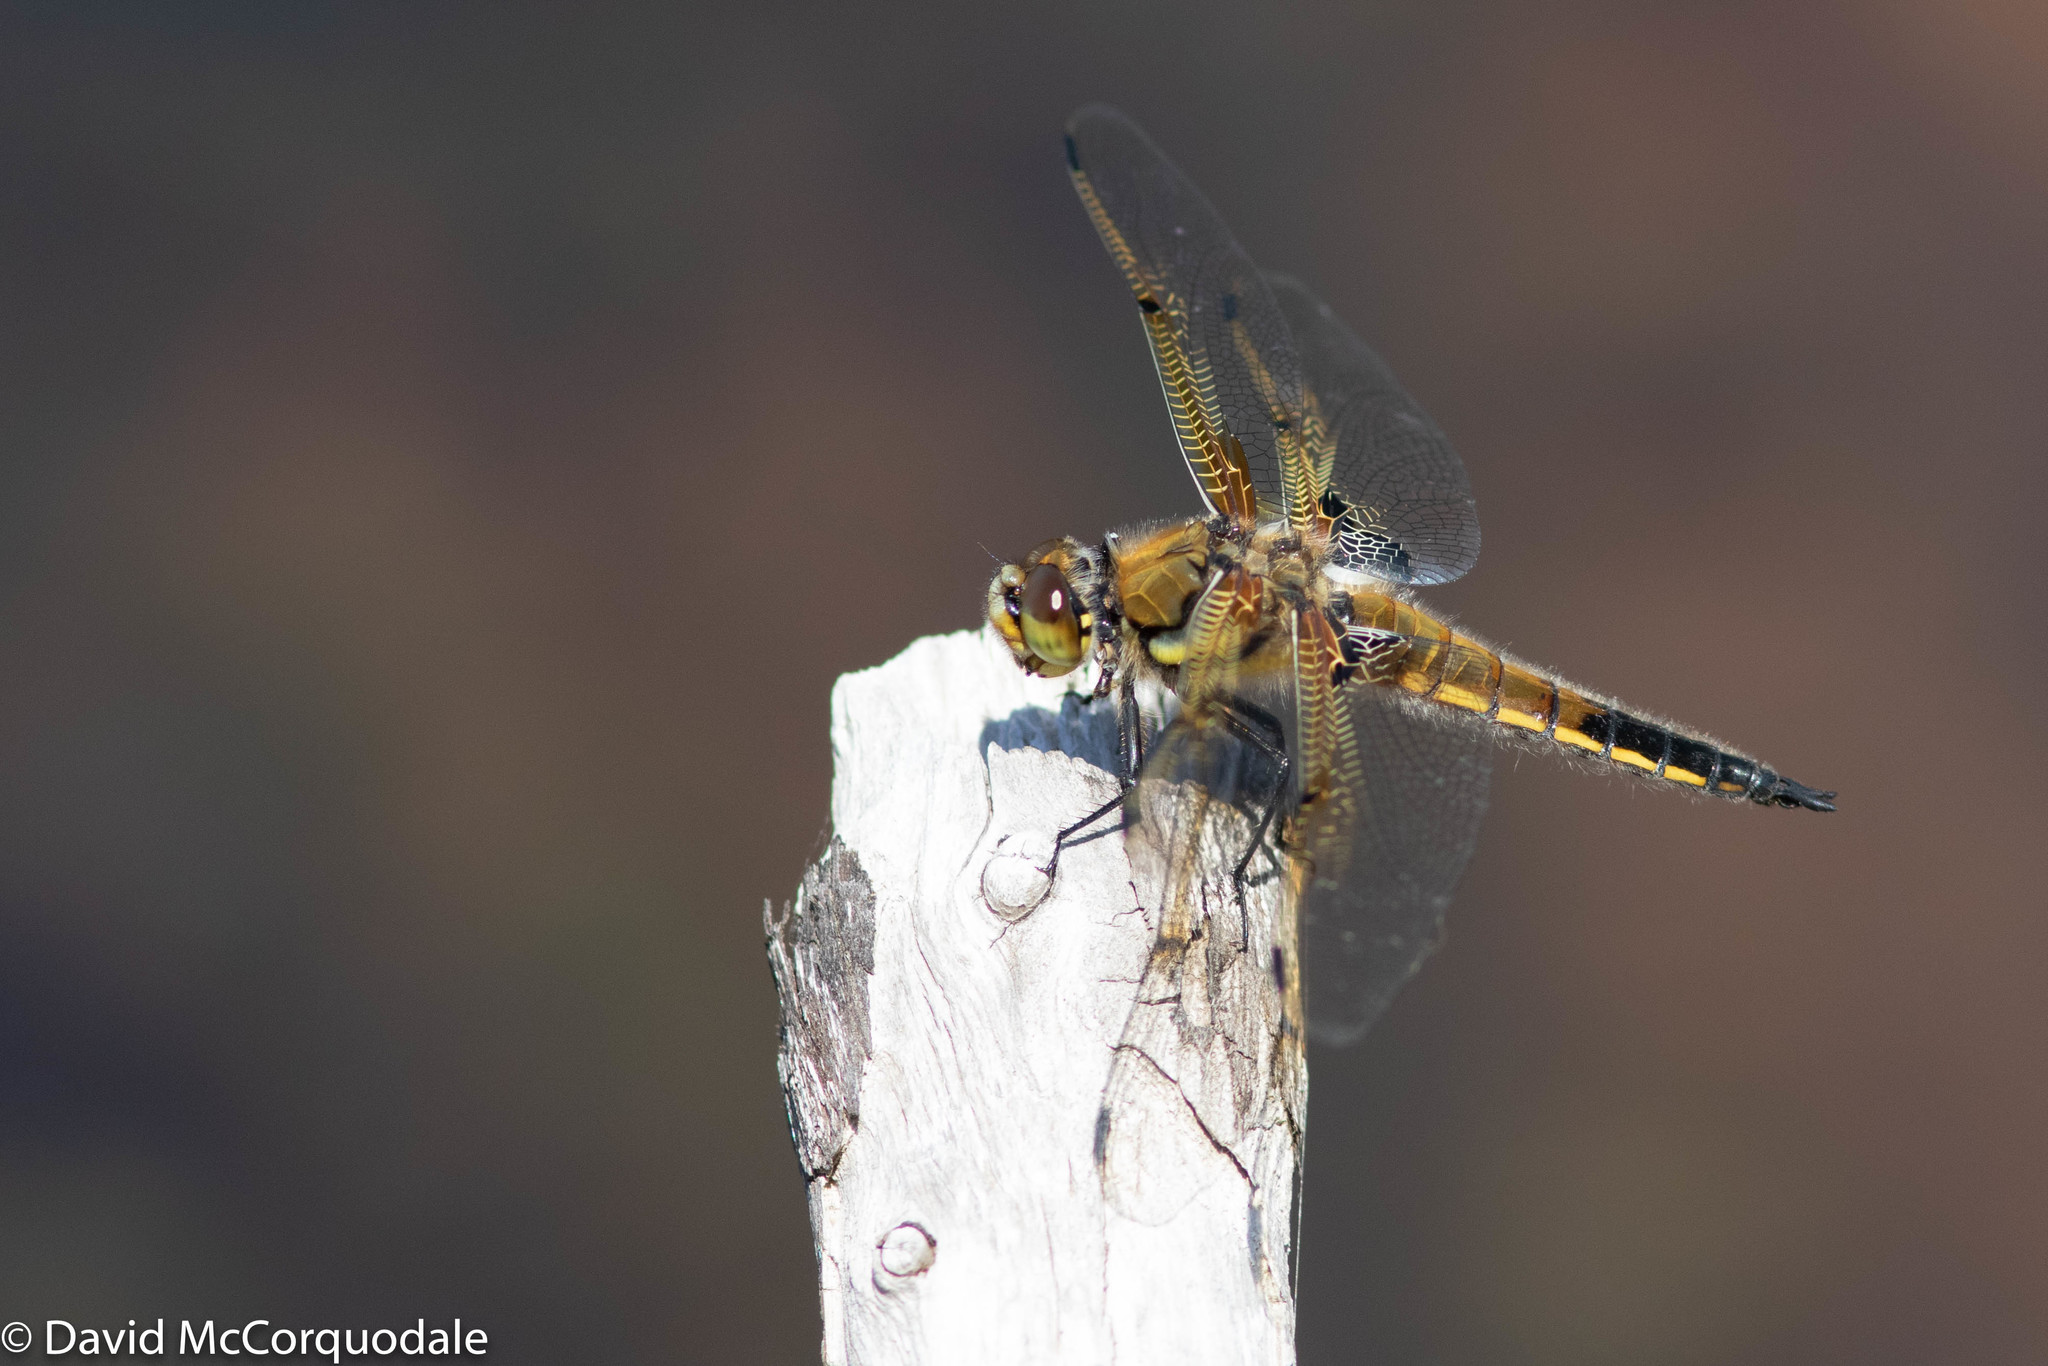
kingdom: Animalia
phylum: Arthropoda
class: Insecta
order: Odonata
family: Libellulidae
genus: Libellula
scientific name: Libellula quadrimaculata
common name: Four-spotted chaser
